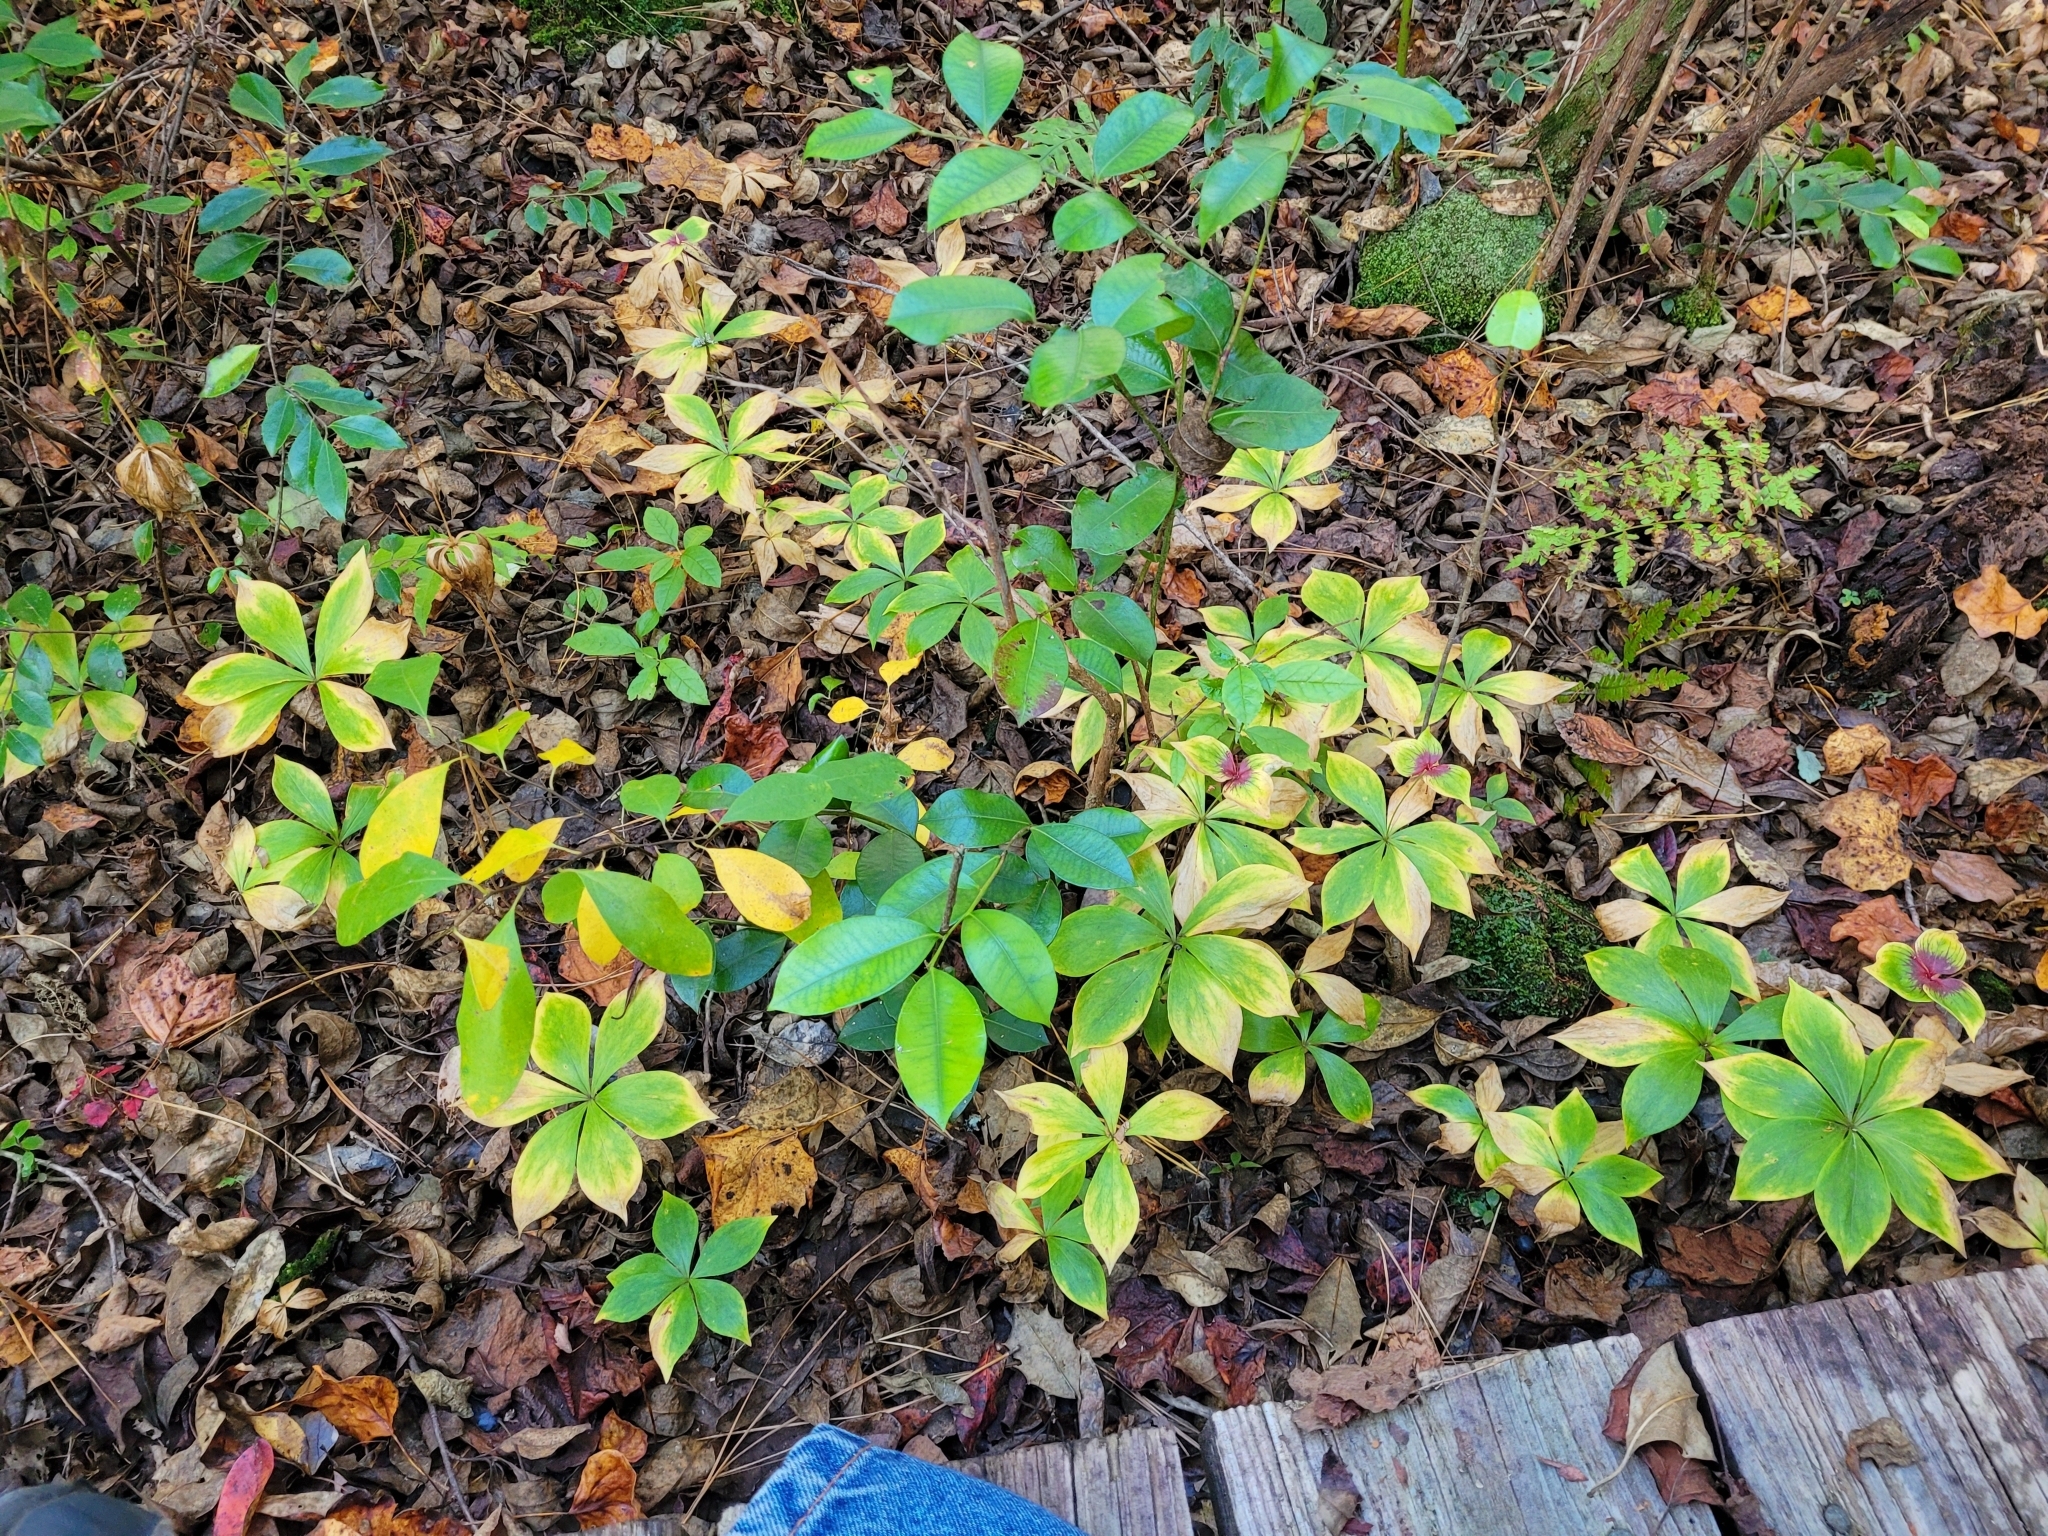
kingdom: Plantae
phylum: Tracheophyta
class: Liliopsida
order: Liliales
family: Liliaceae
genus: Medeola
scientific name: Medeola virginiana
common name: Indian cucumber-root
